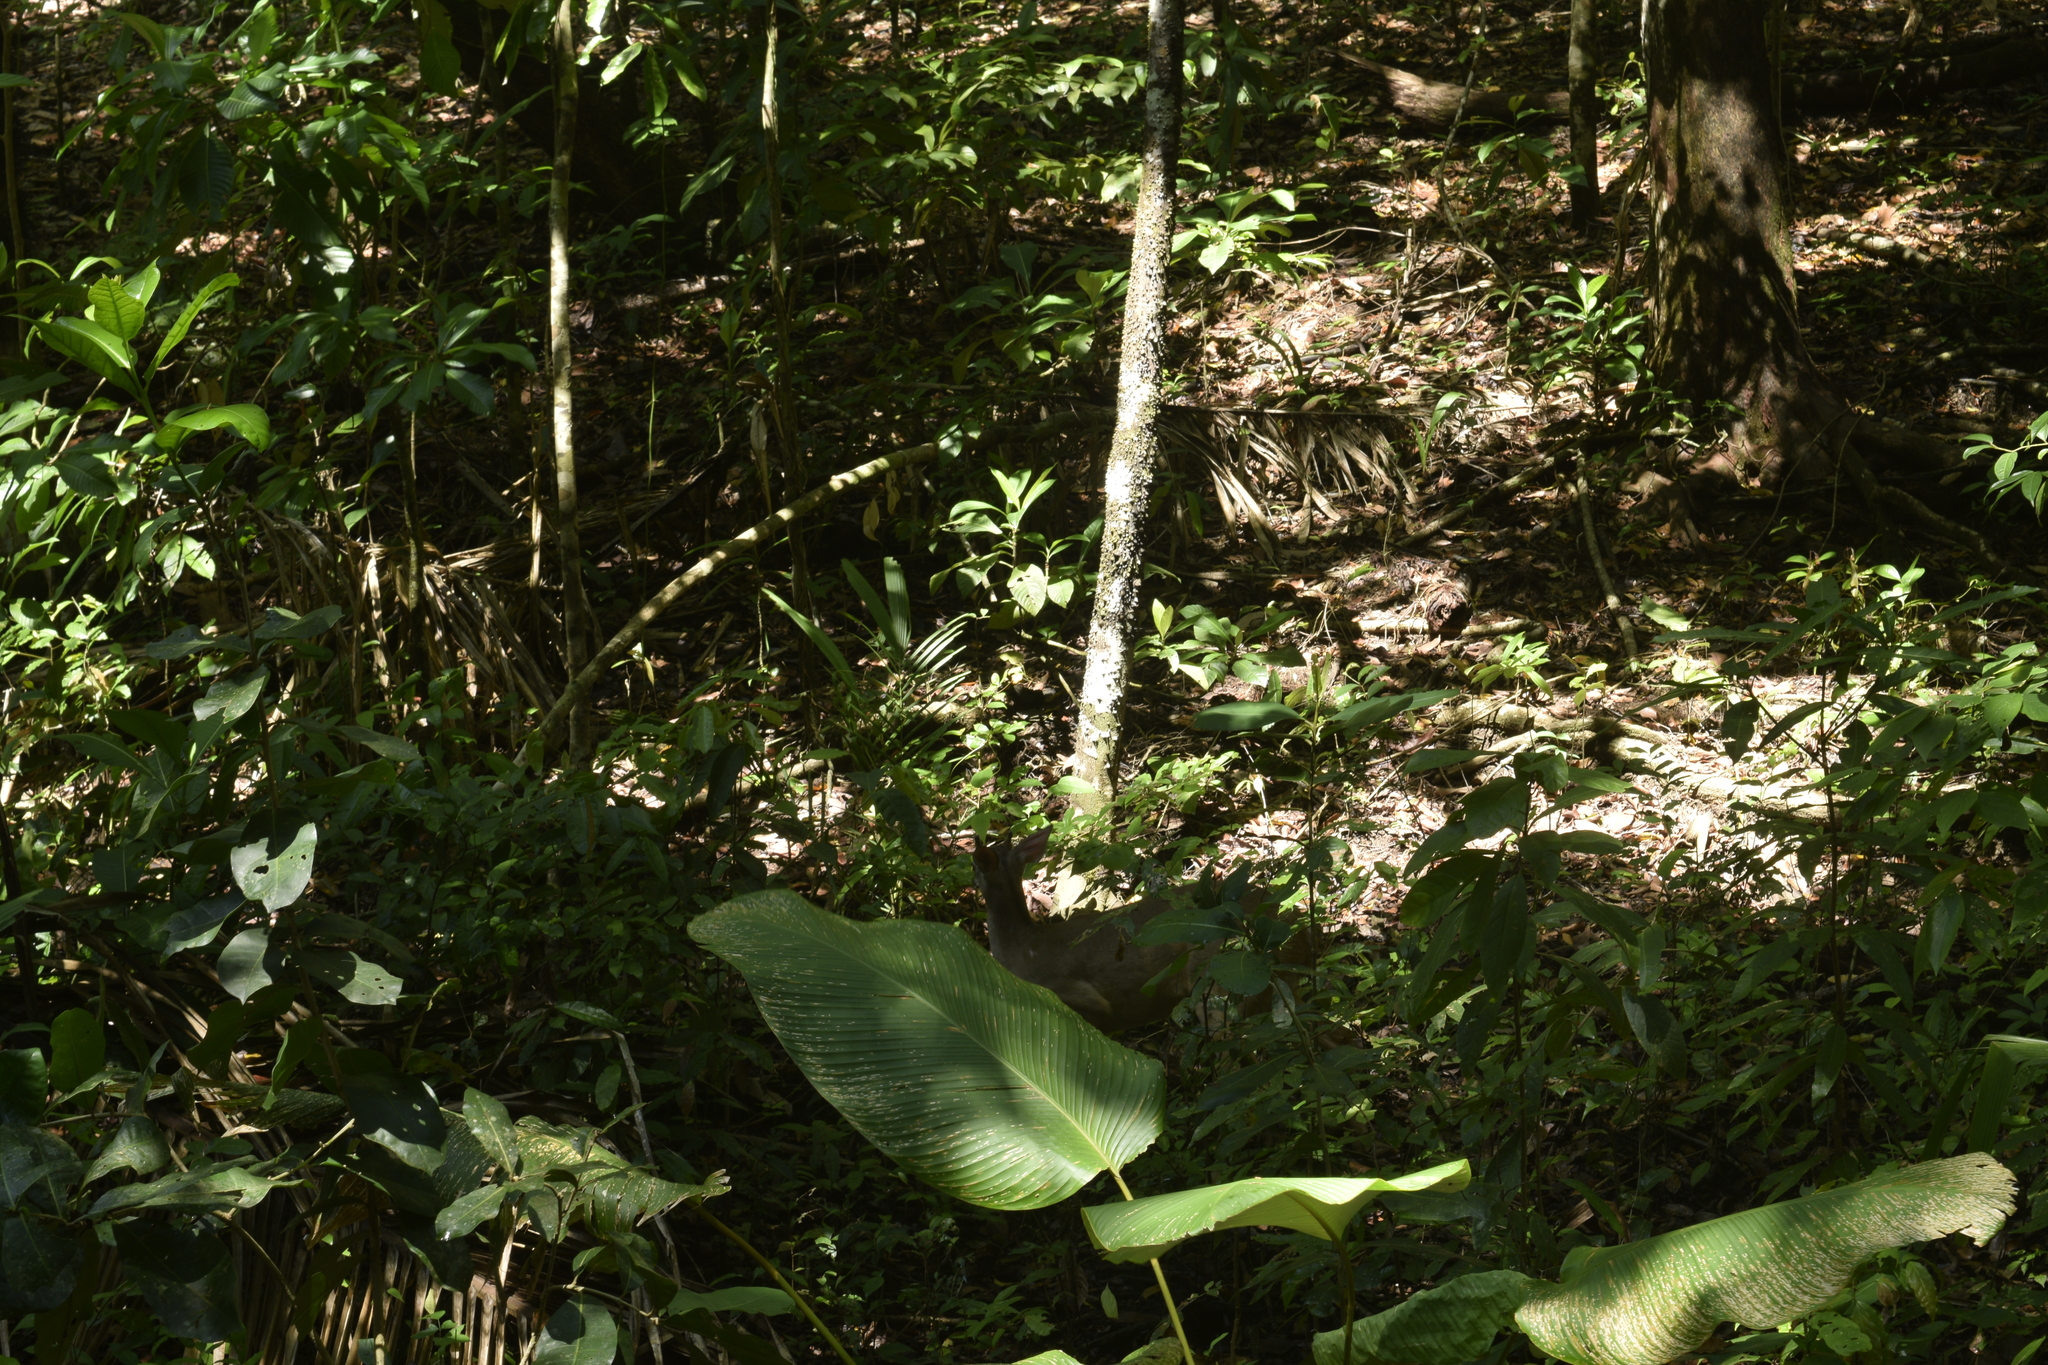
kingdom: Animalia
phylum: Chordata
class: Mammalia
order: Artiodactyla
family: Cervidae
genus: Odocoileus
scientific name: Odocoileus virginianus
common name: White-tailed deer
